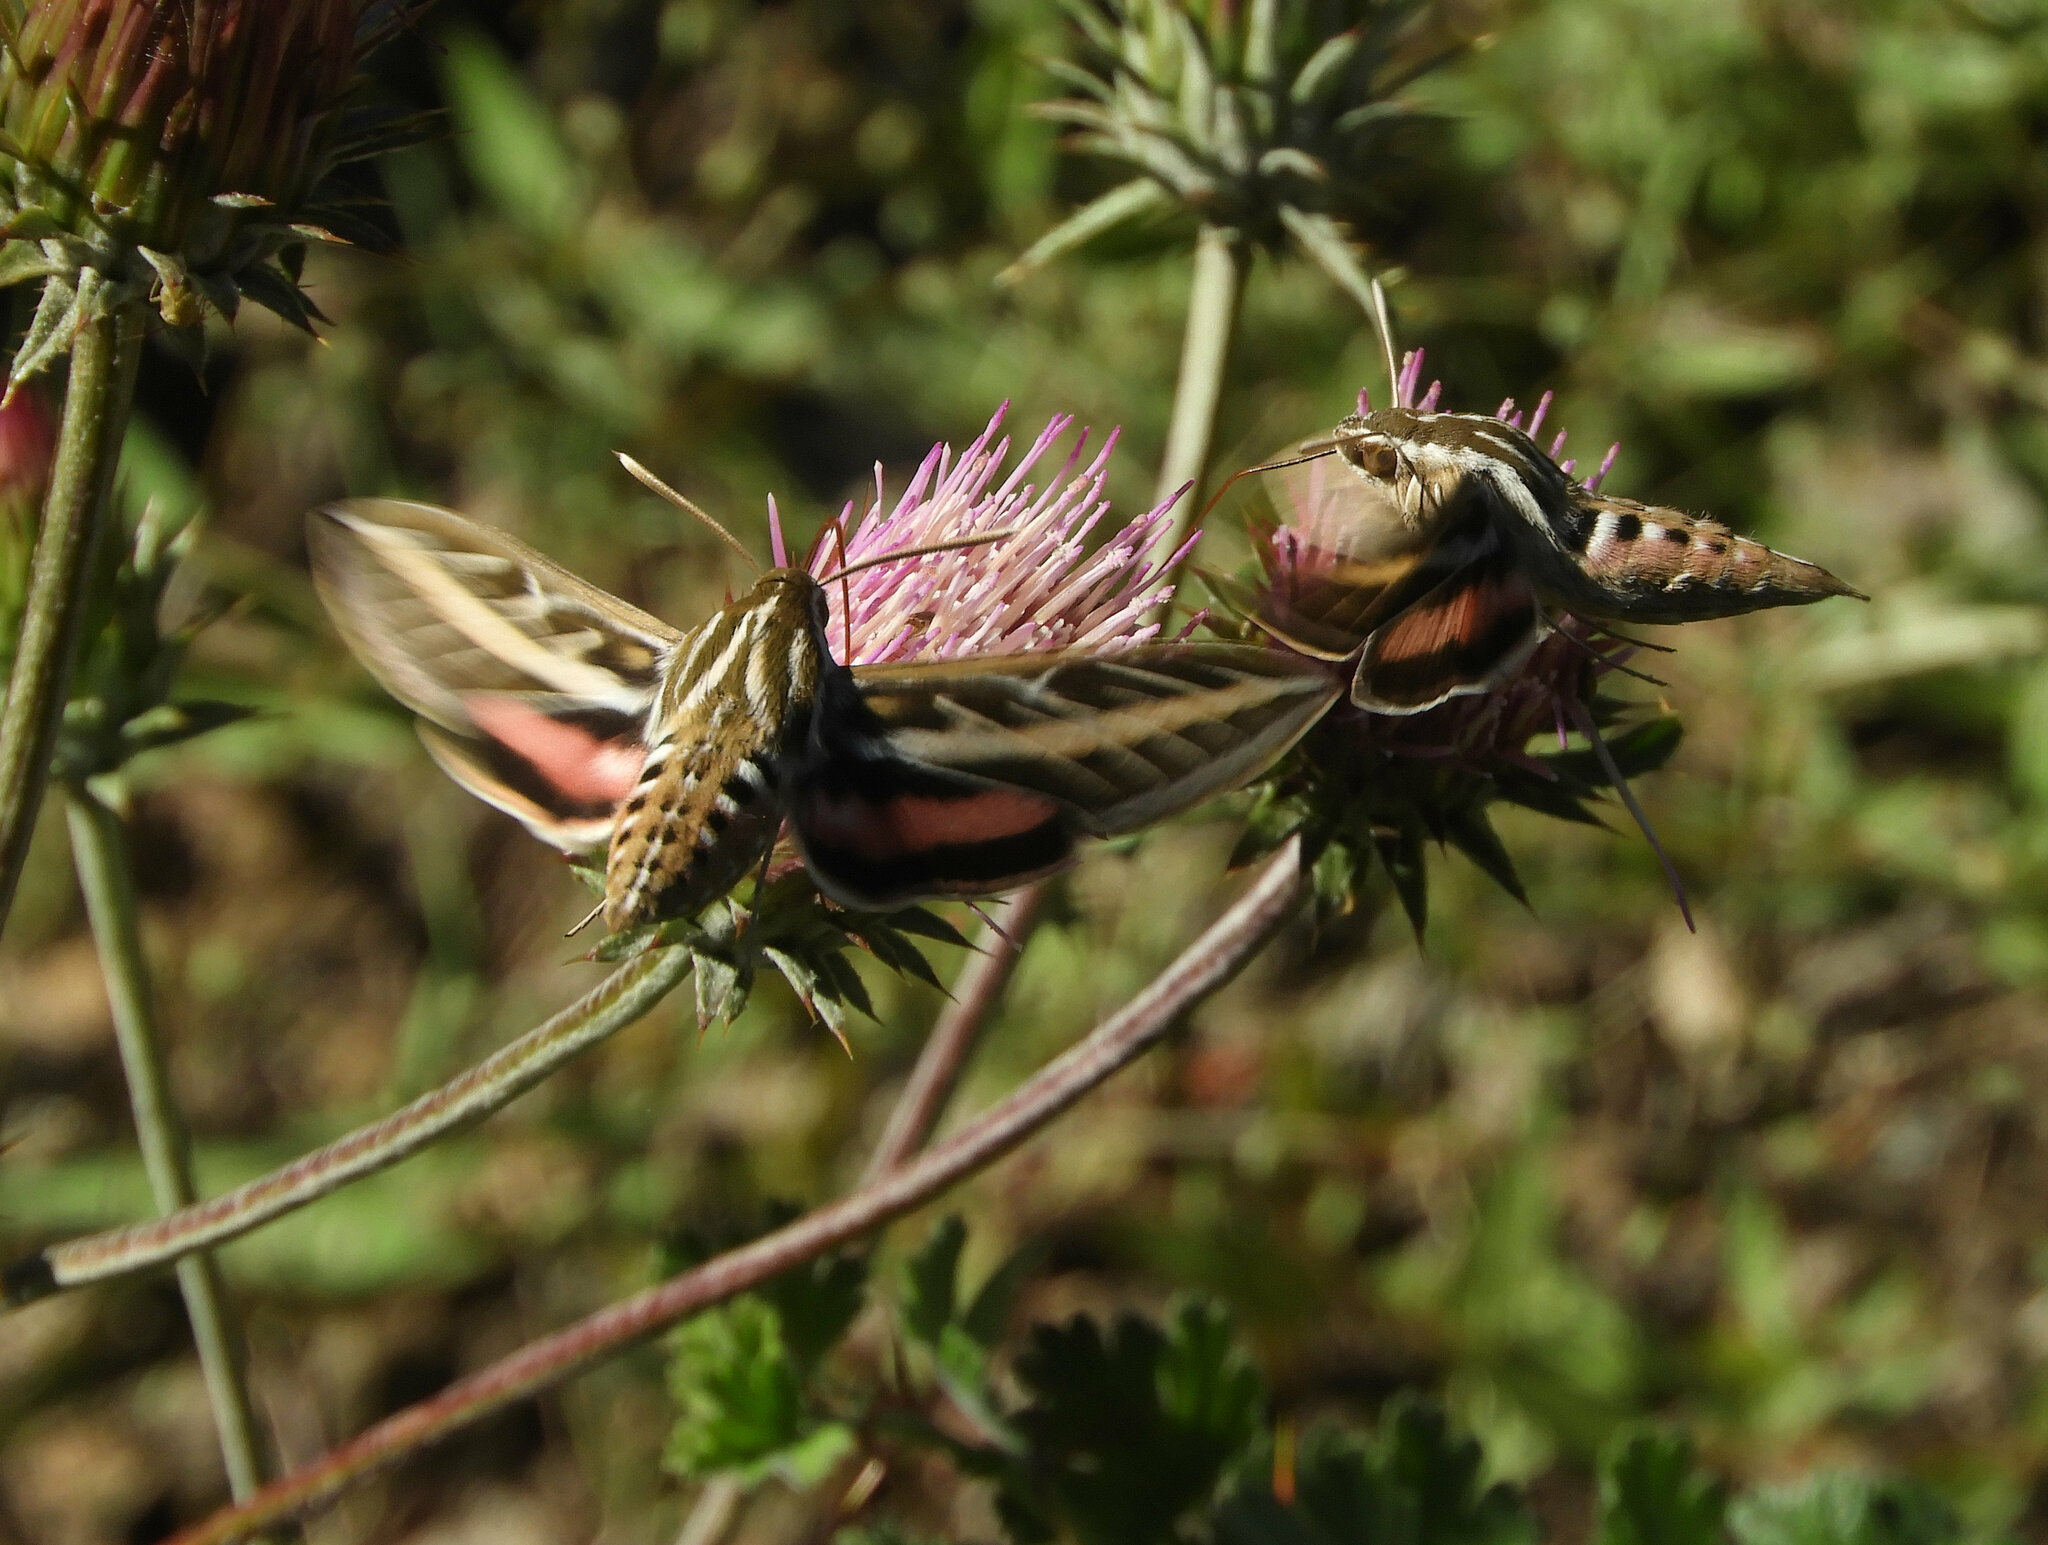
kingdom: Animalia
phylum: Arthropoda
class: Insecta
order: Lepidoptera
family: Sphingidae
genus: Hyles
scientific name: Hyles lineata
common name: White-lined sphinx
